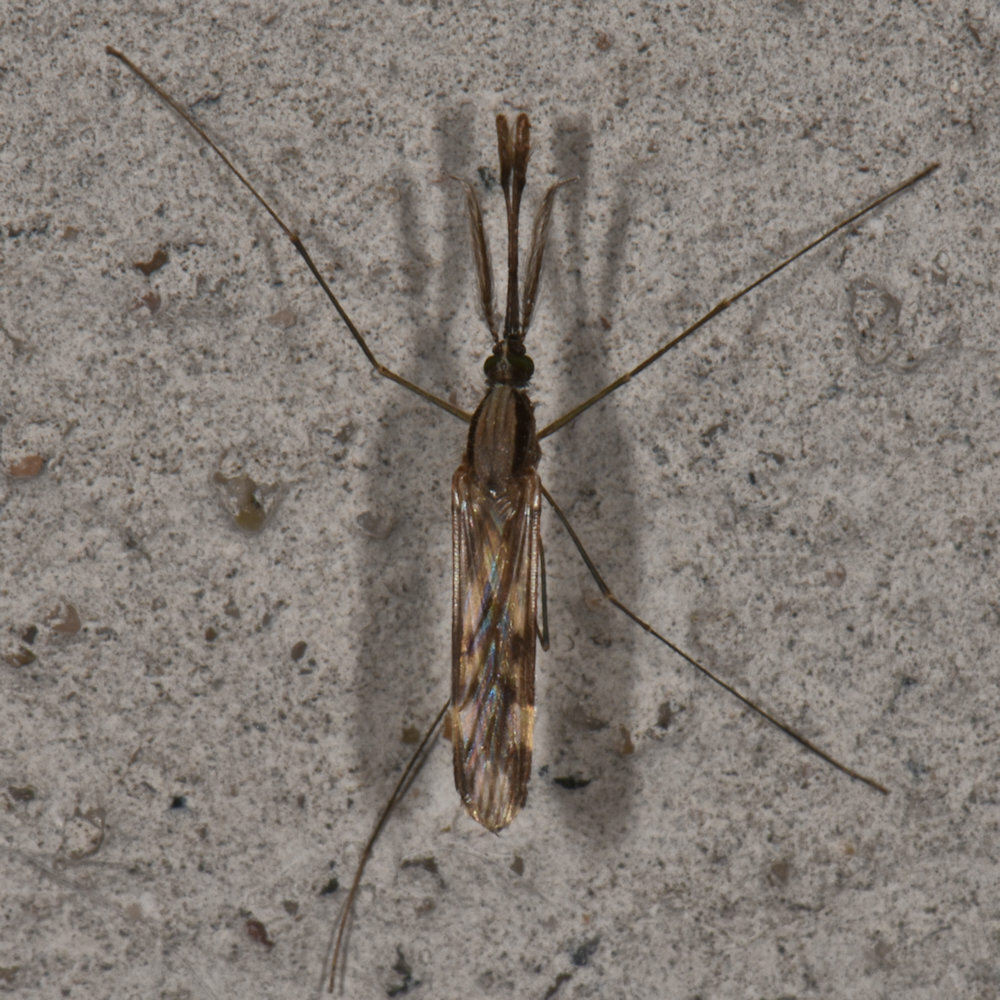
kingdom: Animalia
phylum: Arthropoda
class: Insecta
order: Diptera
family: Culicidae
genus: Anopheles
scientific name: Anopheles punctipennis
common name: Woodland malaria mosquito
